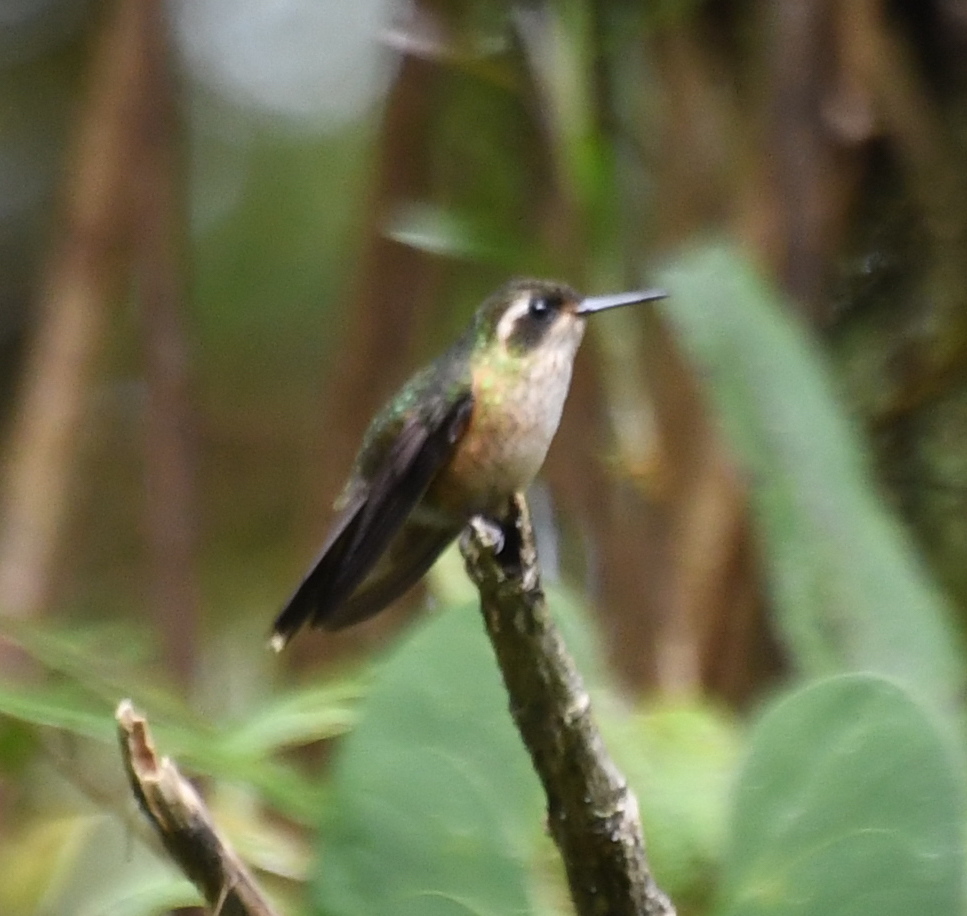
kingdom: Animalia
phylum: Chordata
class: Aves
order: Apodiformes
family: Trochilidae
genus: Adelomyia
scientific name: Adelomyia melanogenys
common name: Speckled hummingbird
